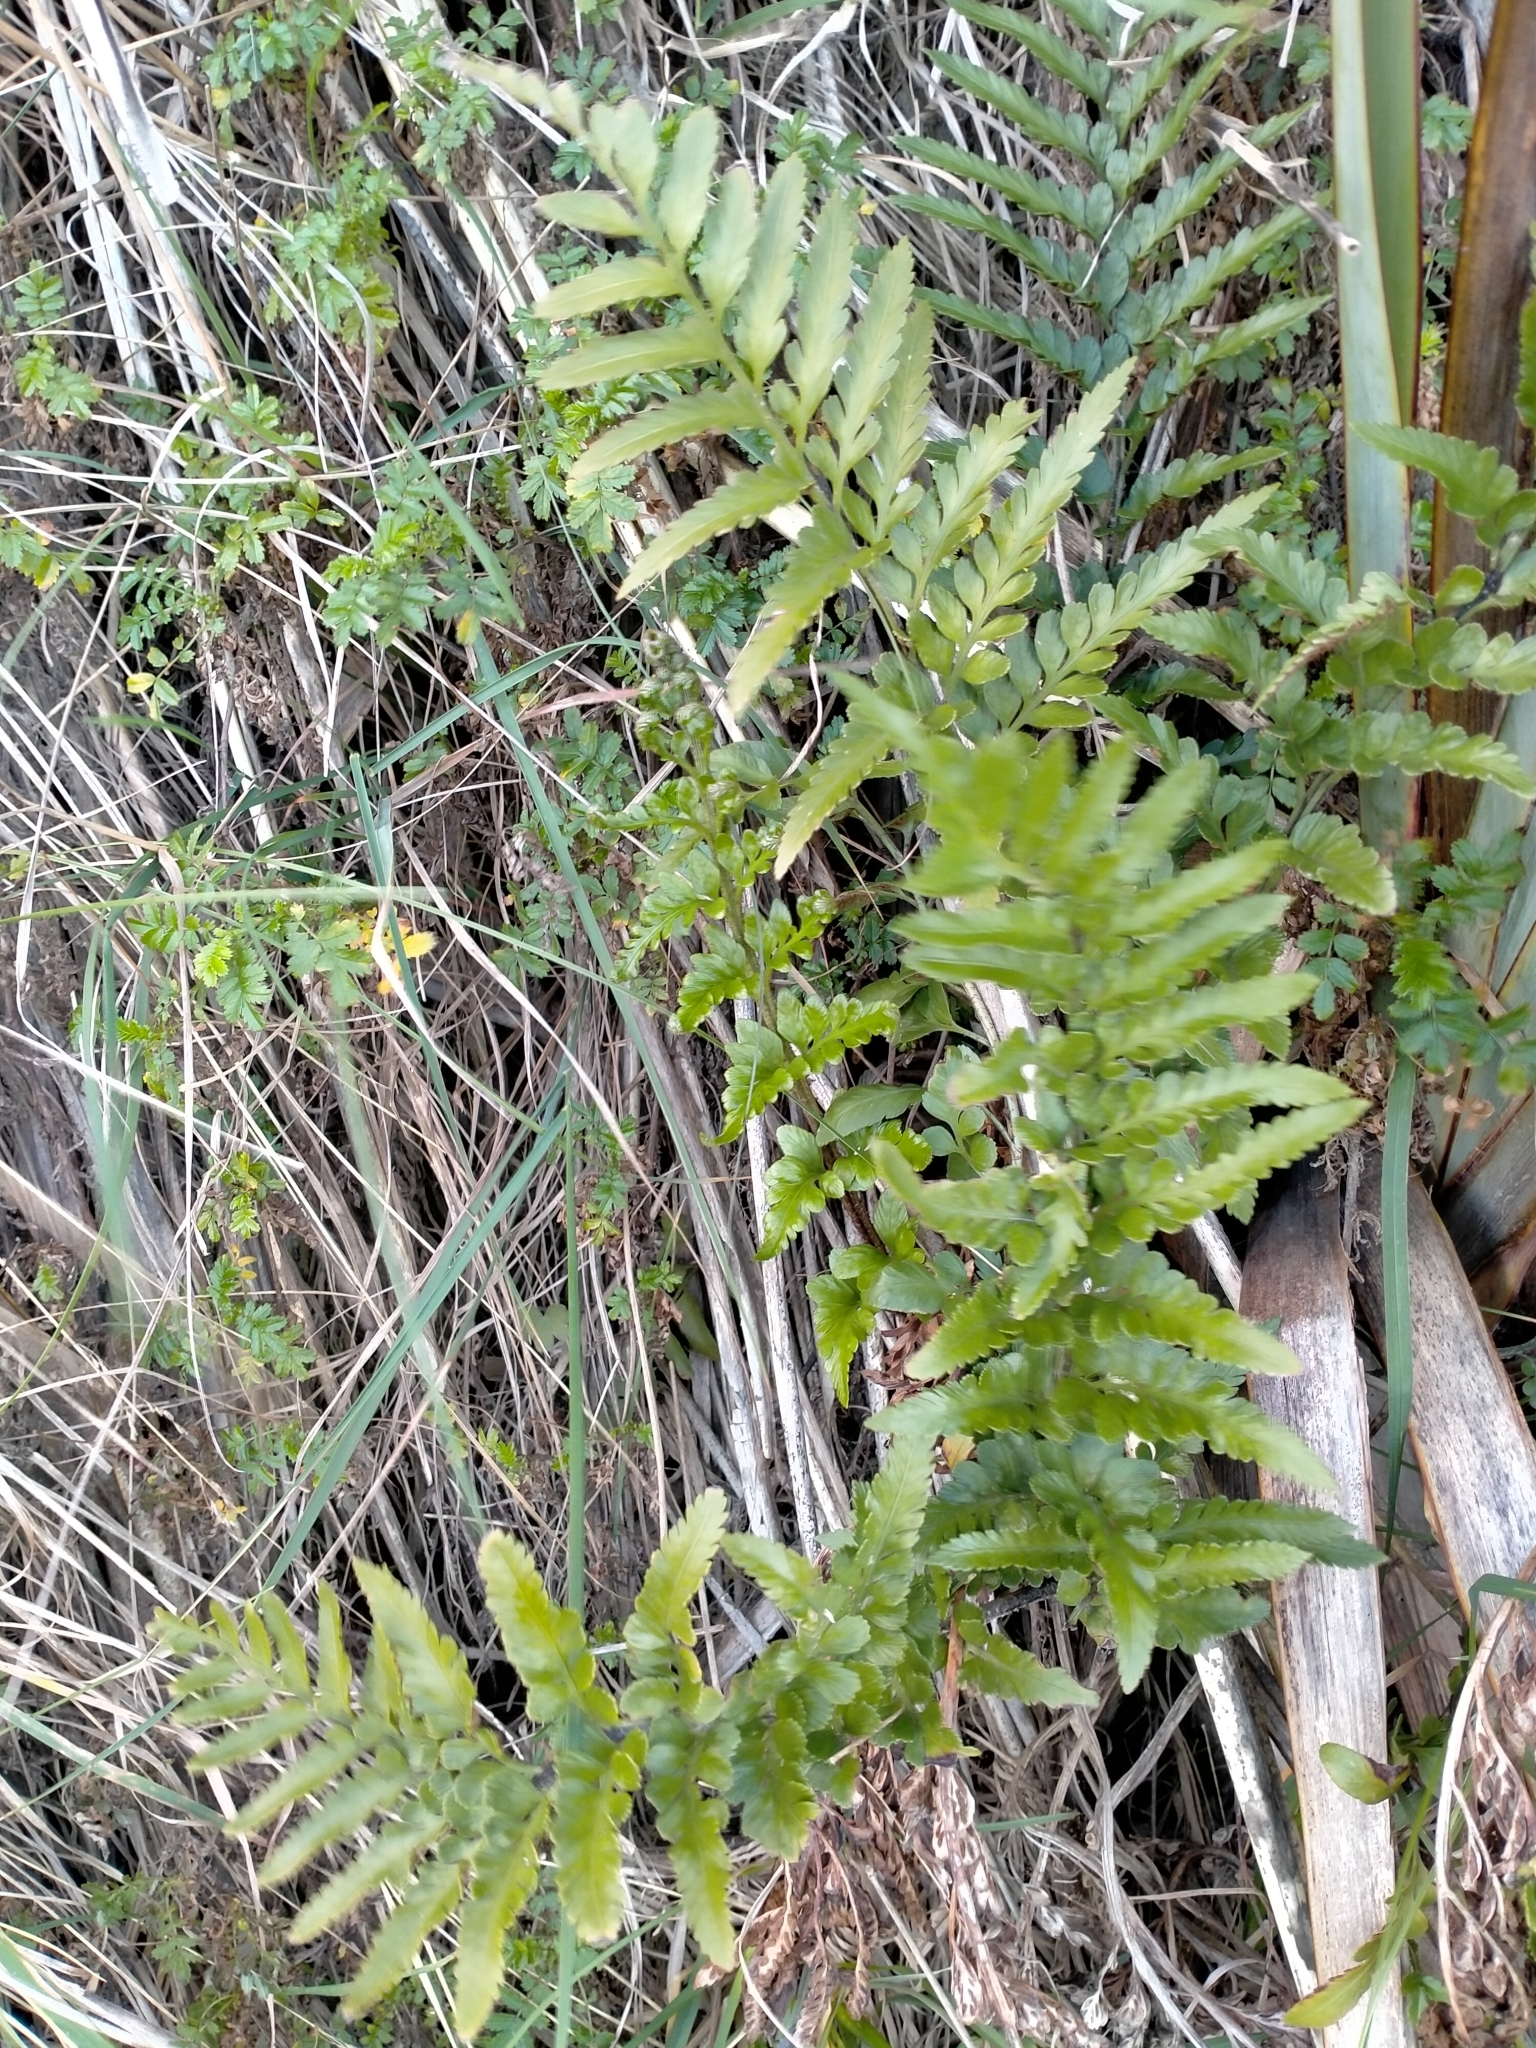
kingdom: Plantae
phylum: Tracheophyta
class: Polypodiopsida
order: Polypodiales
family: Aspleniaceae
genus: Asplenium
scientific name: Asplenium lyallii
